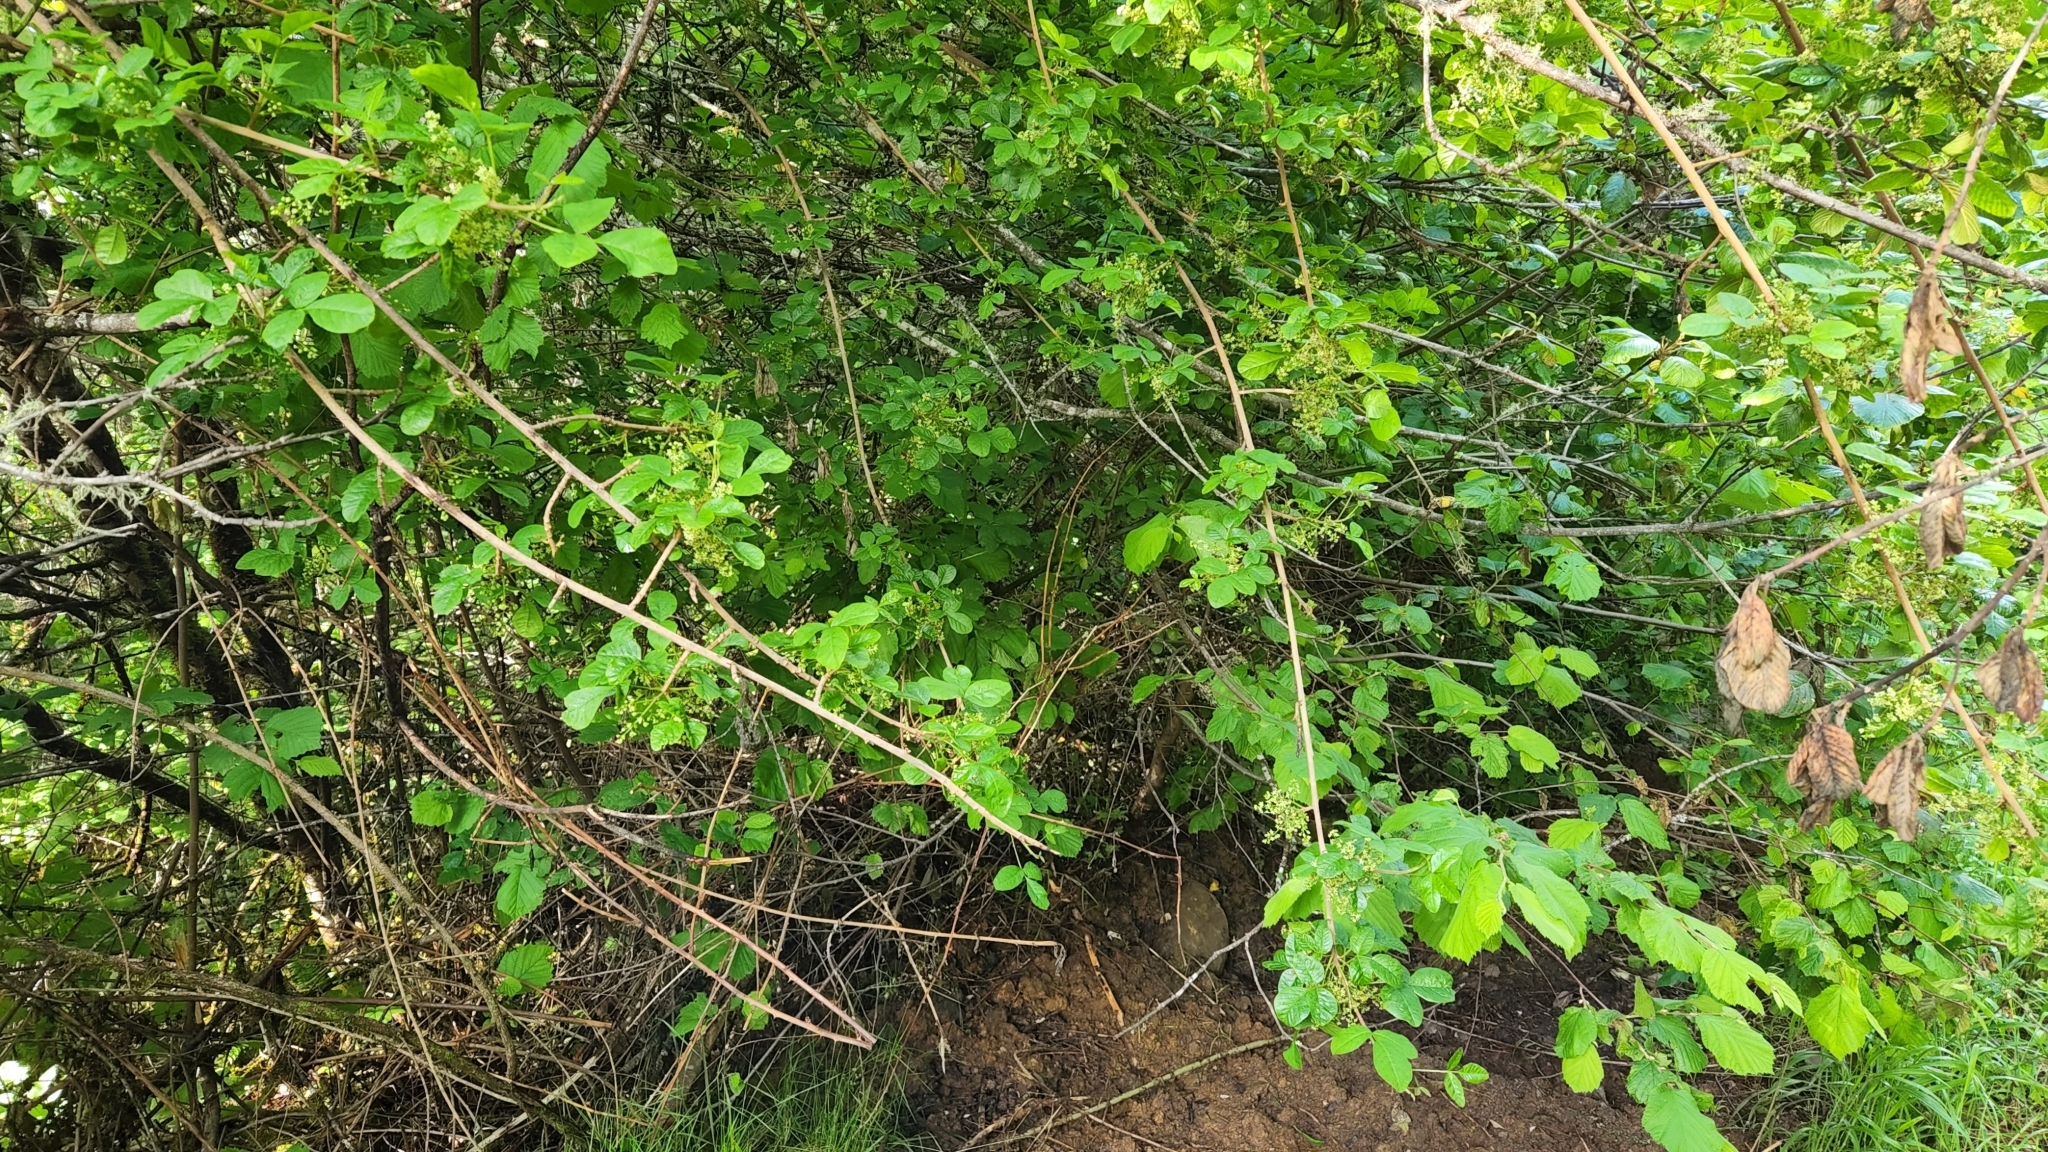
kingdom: Plantae
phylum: Tracheophyta
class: Magnoliopsida
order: Sapindales
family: Anacardiaceae
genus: Toxicodendron
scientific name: Toxicodendron diversilobum
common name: Pacific poison-oak
